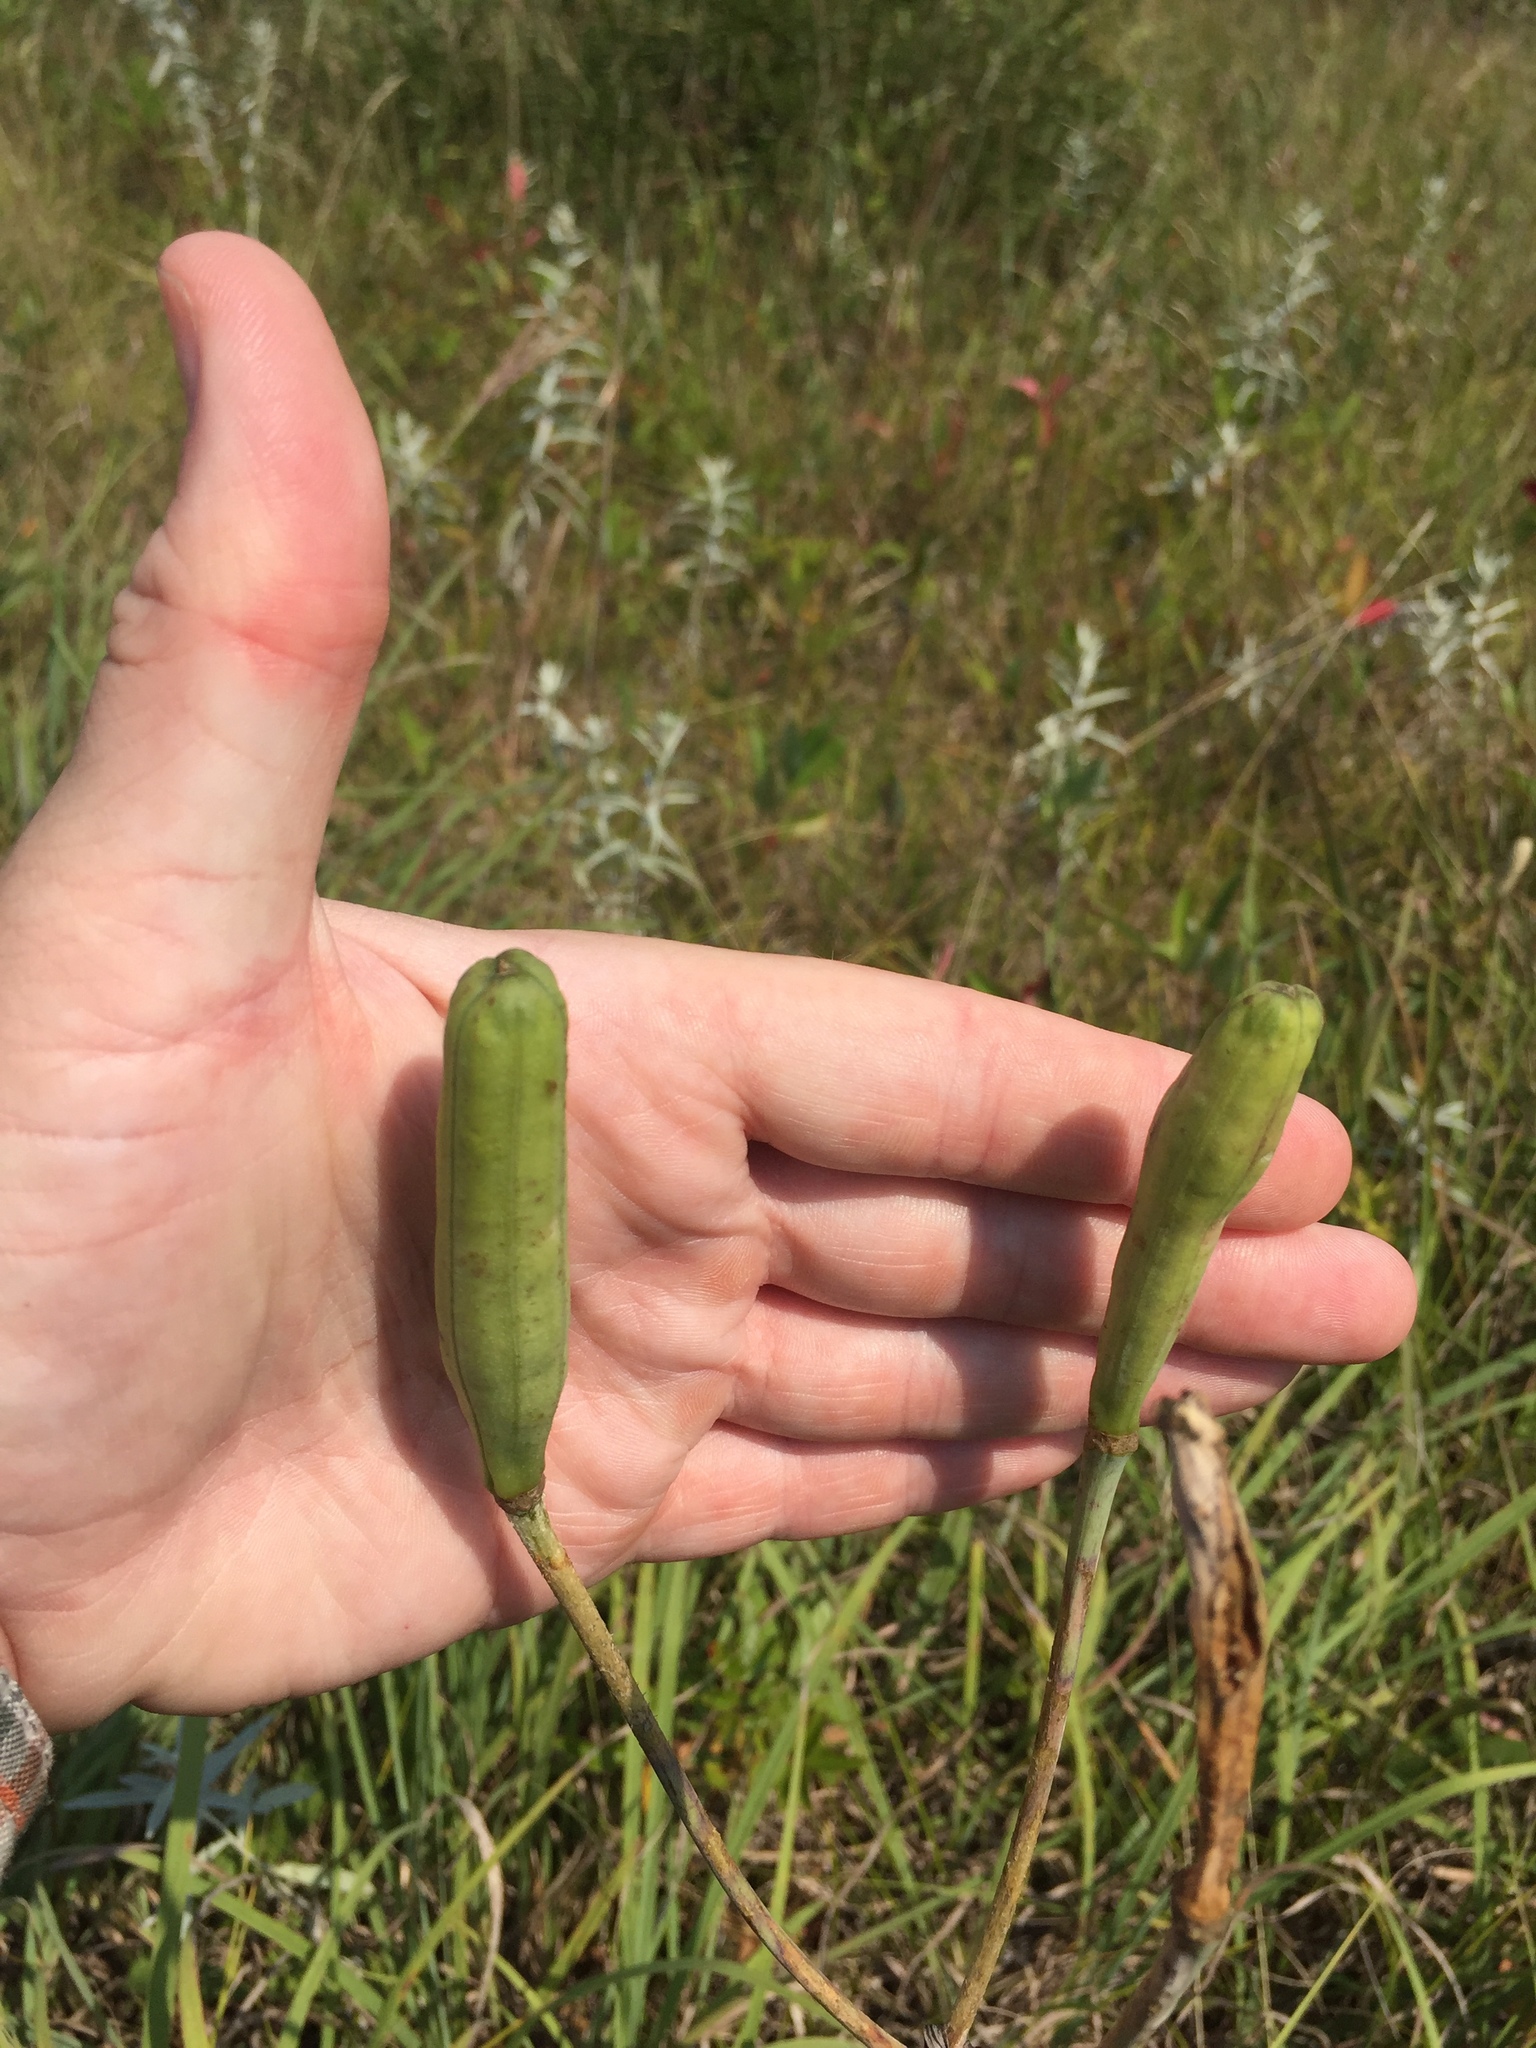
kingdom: Plantae
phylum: Tracheophyta
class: Liliopsida
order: Liliales
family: Liliaceae
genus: Lilium
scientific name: Lilium philadelphicum
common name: Red lily
